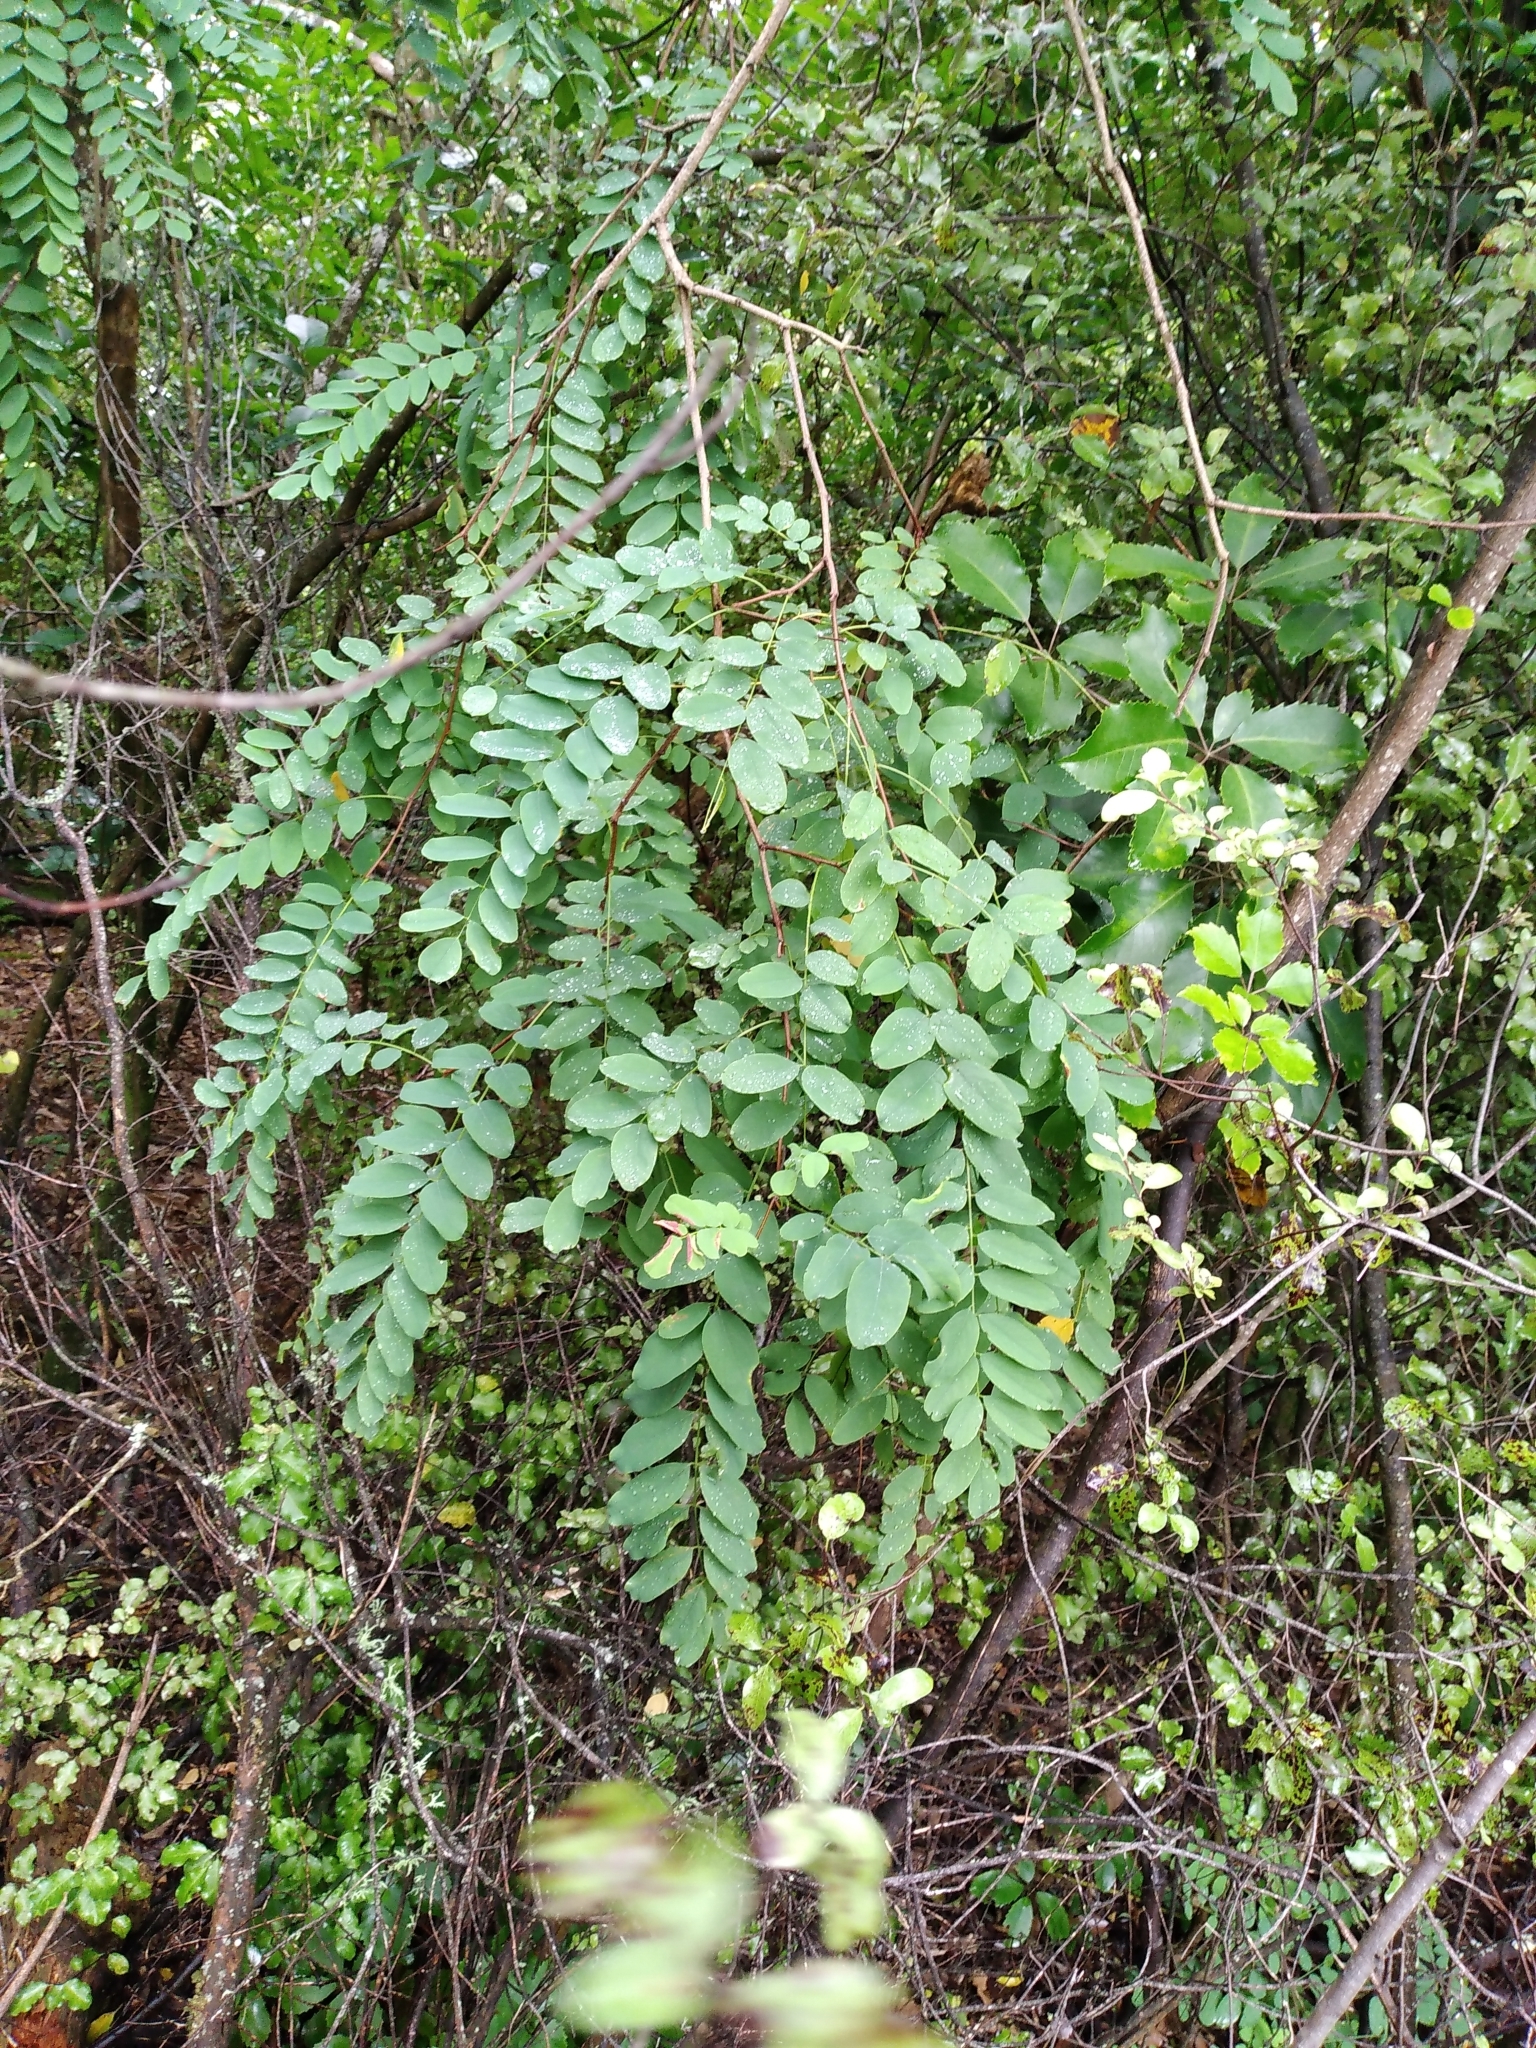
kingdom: Plantae
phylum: Tracheophyta
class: Magnoliopsida
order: Fabales
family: Fabaceae
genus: Robinia
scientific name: Robinia pseudoacacia
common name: Black locust
